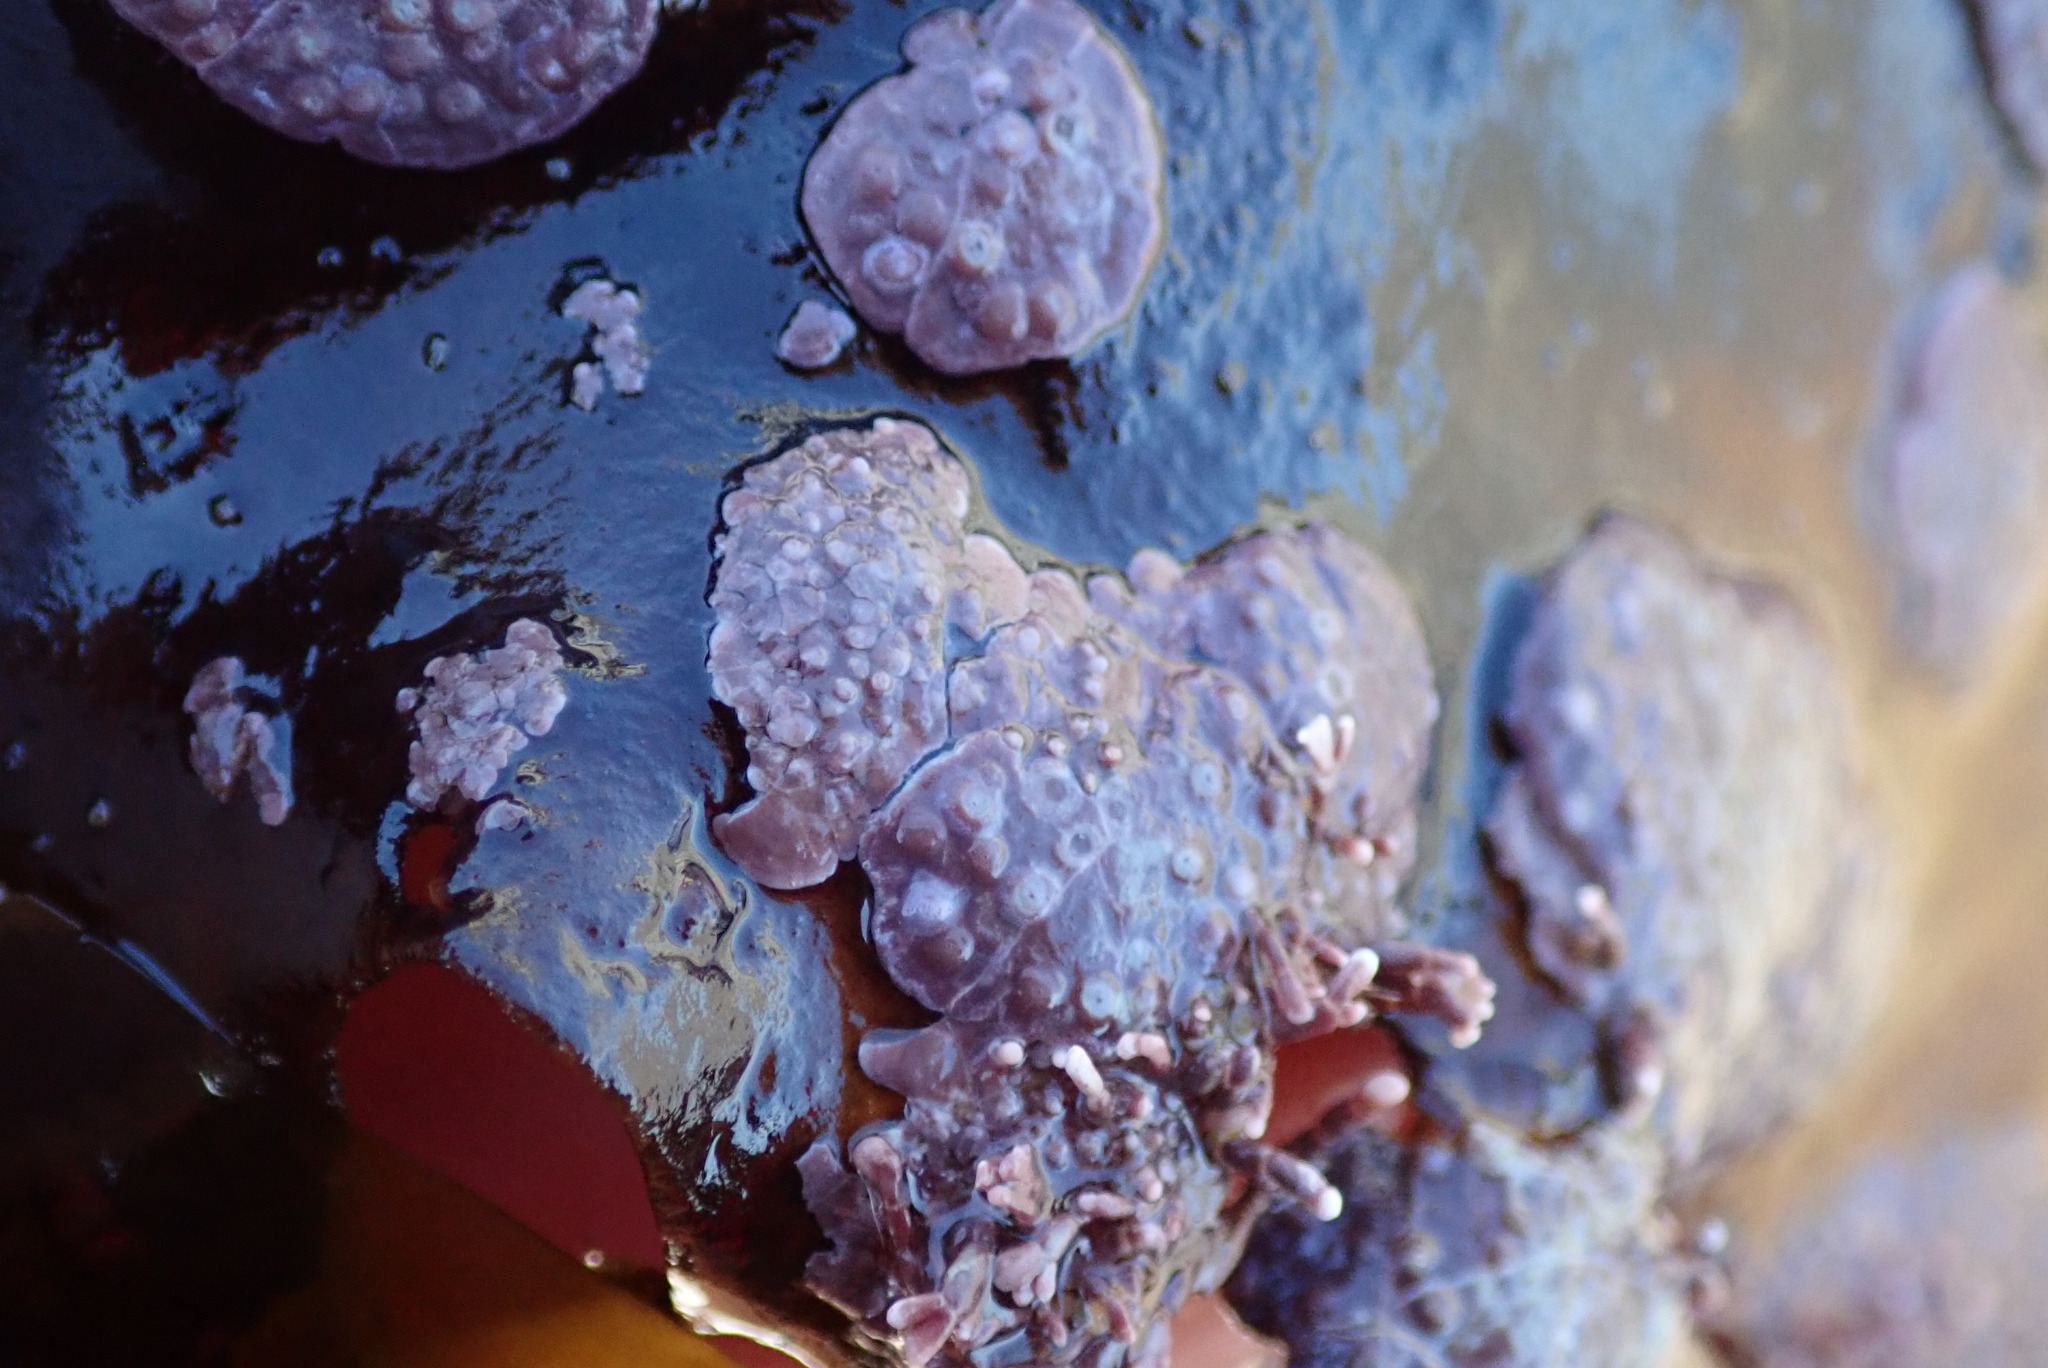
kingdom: Plantae
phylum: Rhodophyta
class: Florideophyceae
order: Corallinales
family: Corallinaceae
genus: Corallina
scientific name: Corallina officinalis
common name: Coral weed
